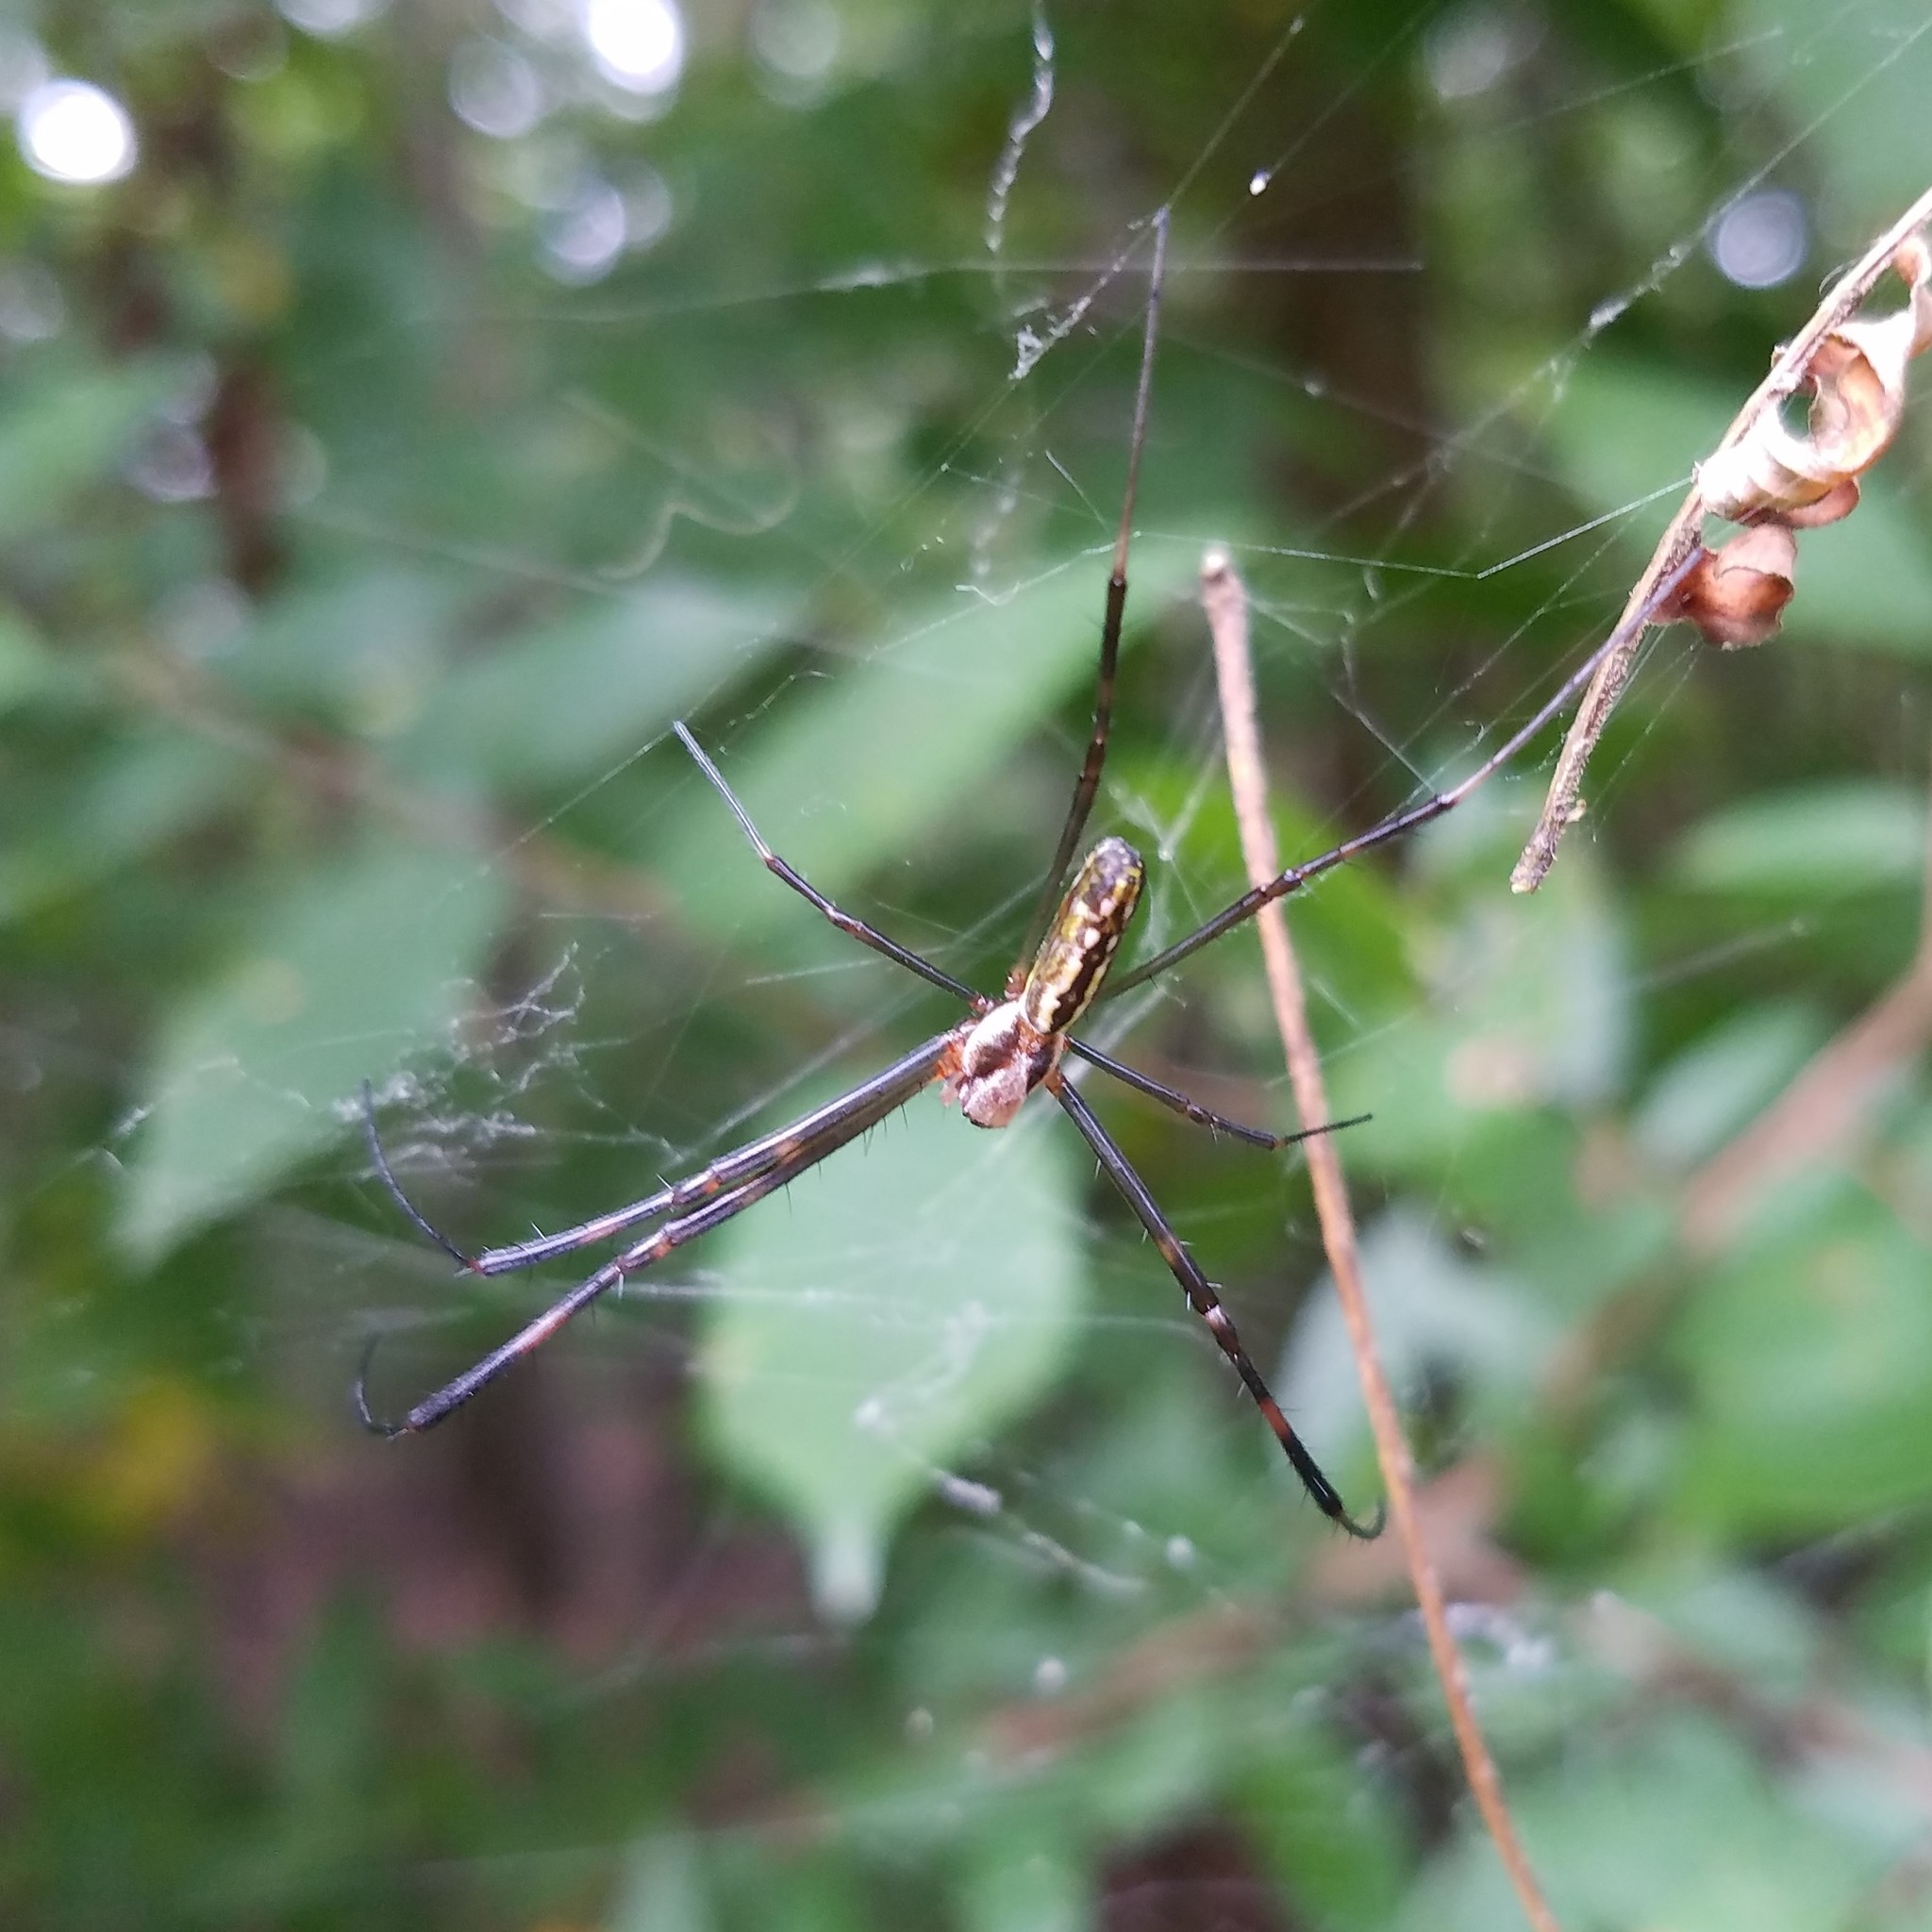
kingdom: Animalia
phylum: Arthropoda
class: Arachnida
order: Araneae
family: Araneidae
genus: Trichonephila
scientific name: Trichonephila clavata
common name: Jorō spider
